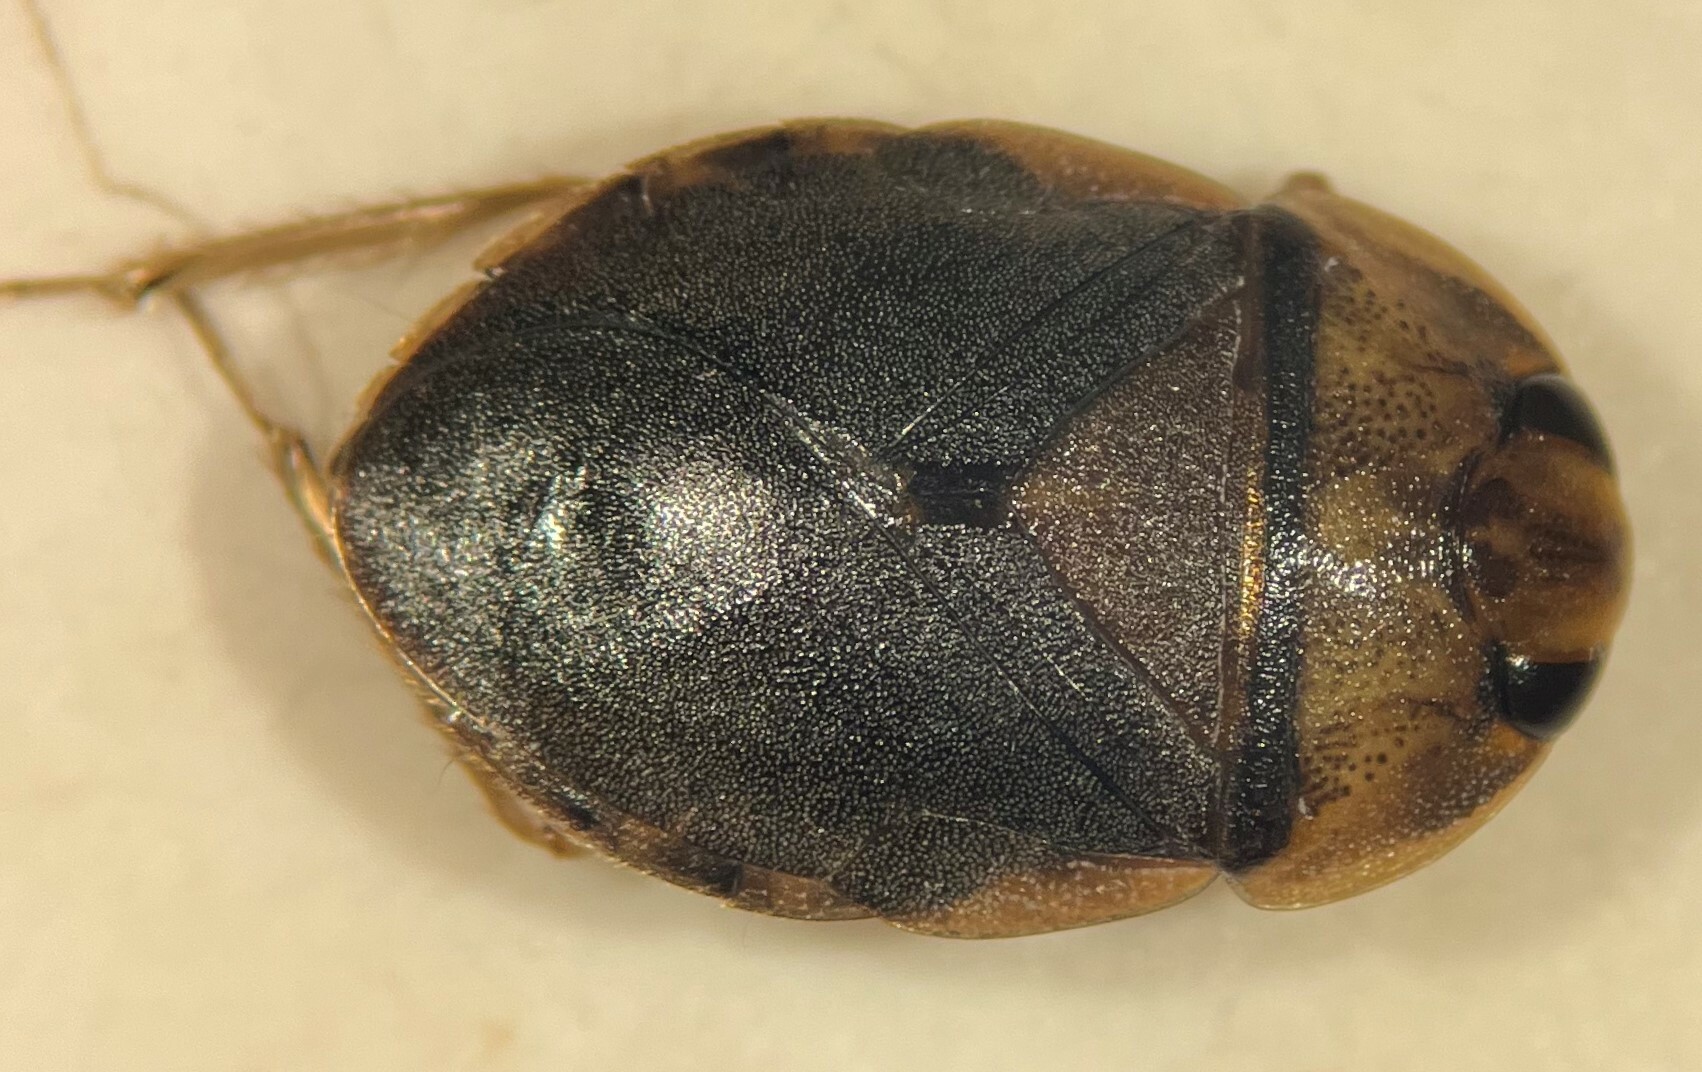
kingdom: Animalia
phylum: Arthropoda
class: Insecta
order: Hemiptera
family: Naucoridae
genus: Ambrysus
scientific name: Ambrysus hybridus
